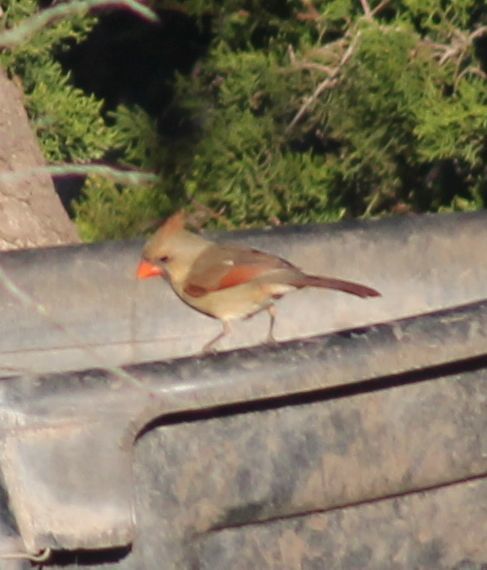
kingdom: Animalia
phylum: Chordata
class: Aves
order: Passeriformes
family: Cardinalidae
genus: Cardinalis
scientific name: Cardinalis cardinalis
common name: Northern cardinal
